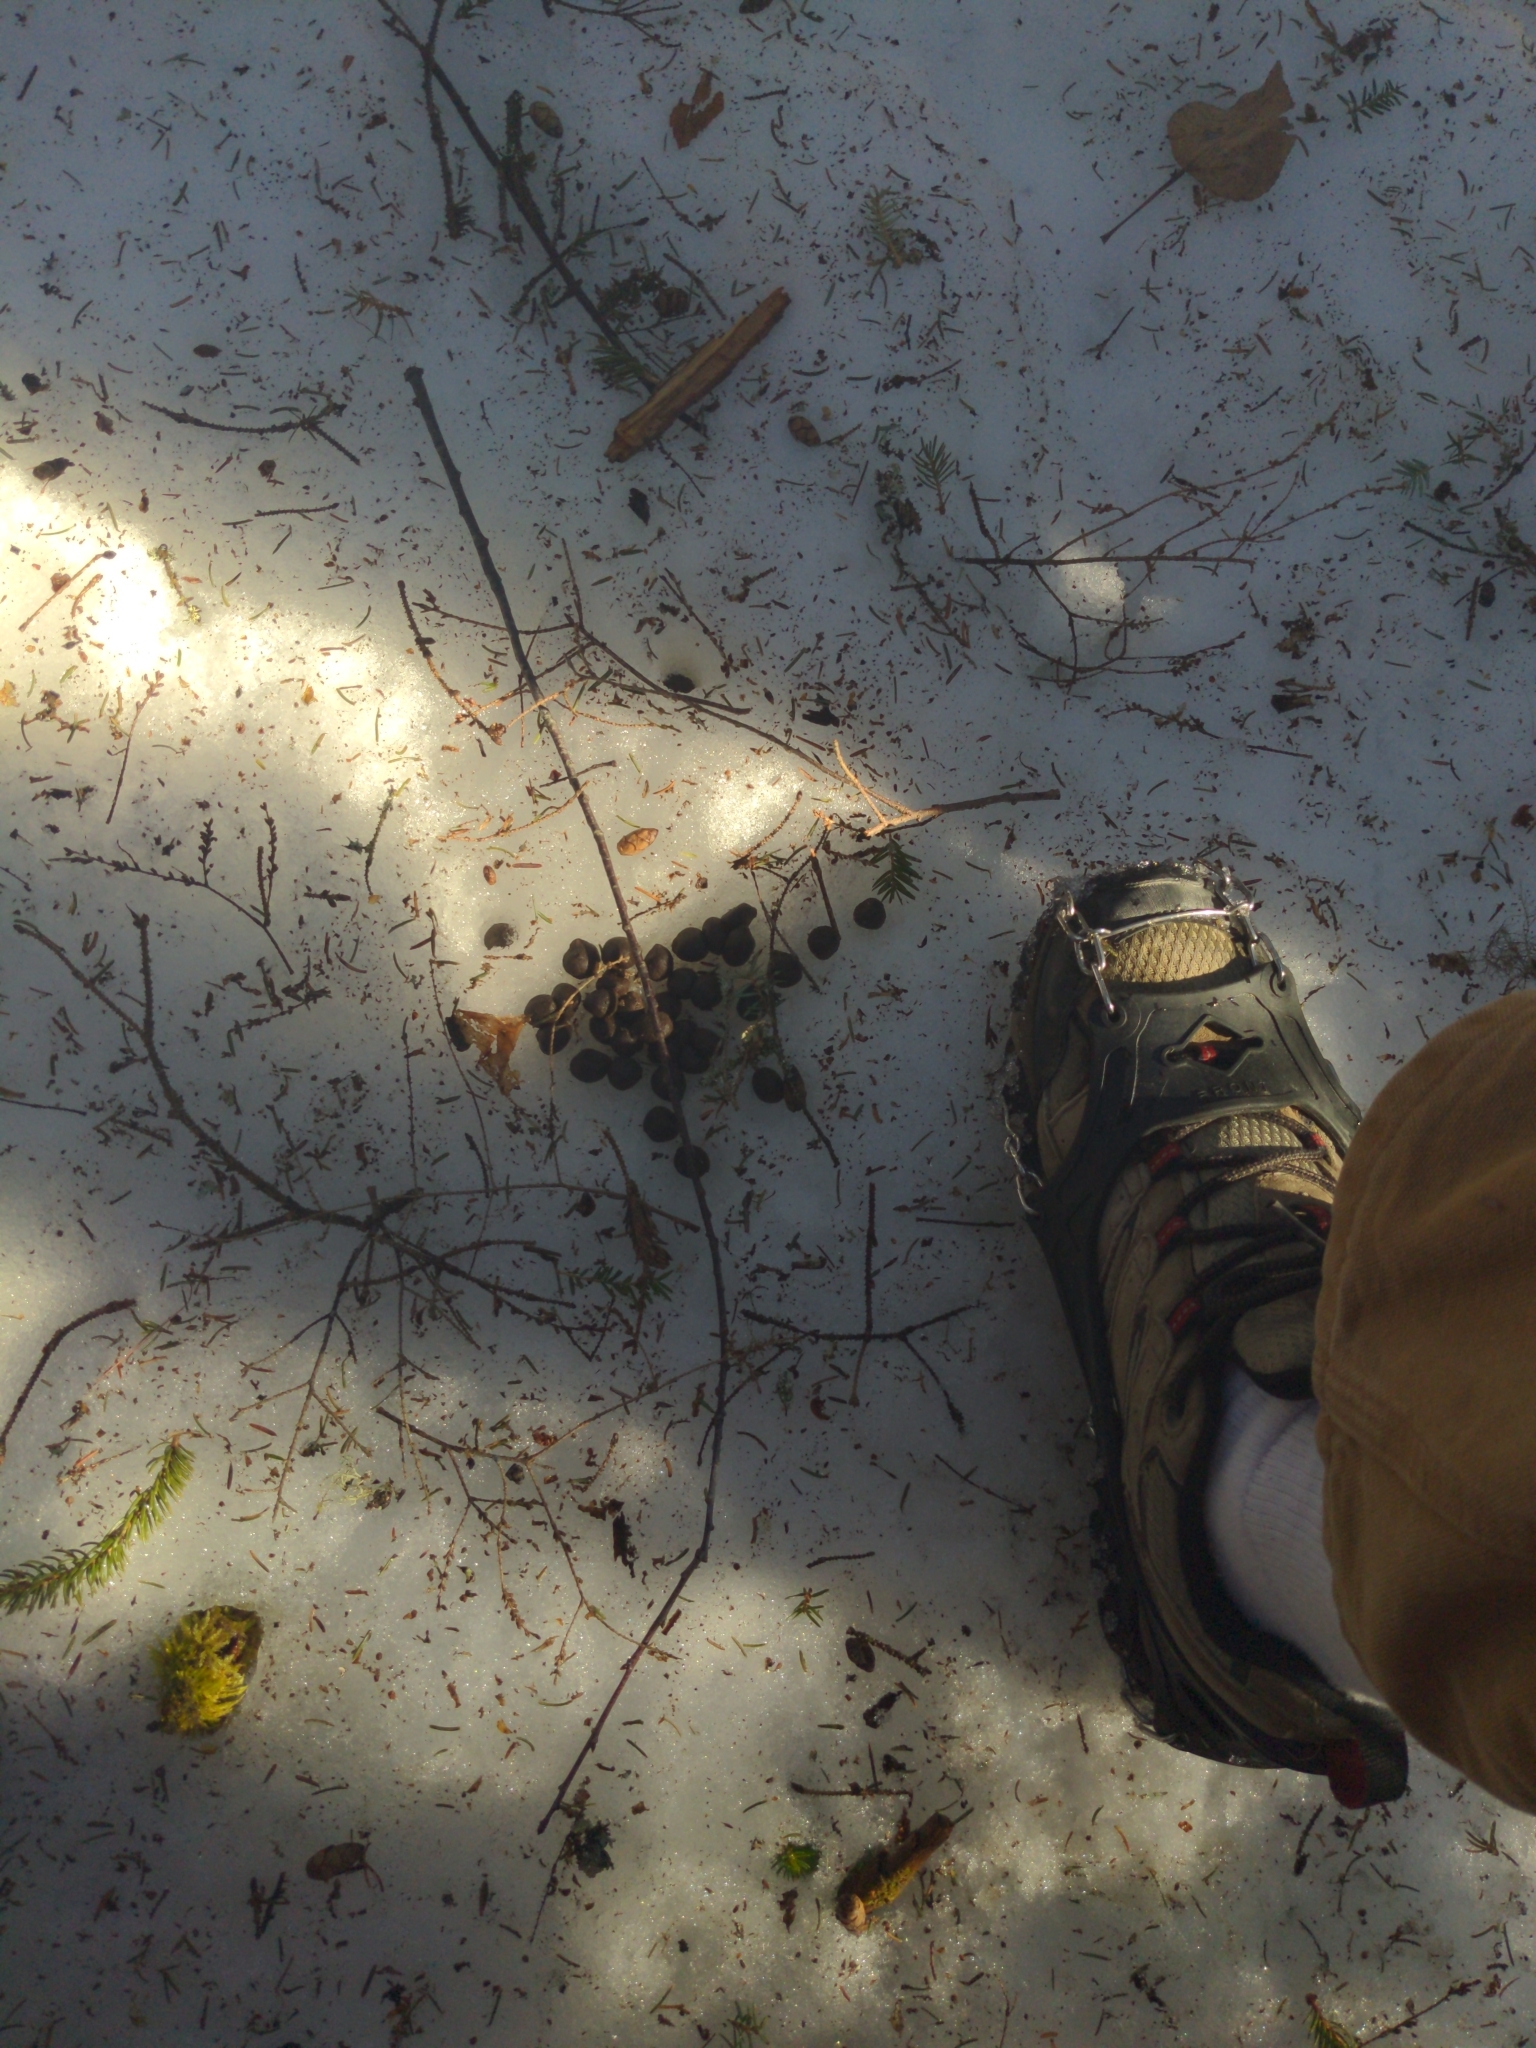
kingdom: Animalia
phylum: Chordata
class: Mammalia
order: Artiodactyla
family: Cervidae
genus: Odocoileus
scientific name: Odocoileus virginianus
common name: White-tailed deer
